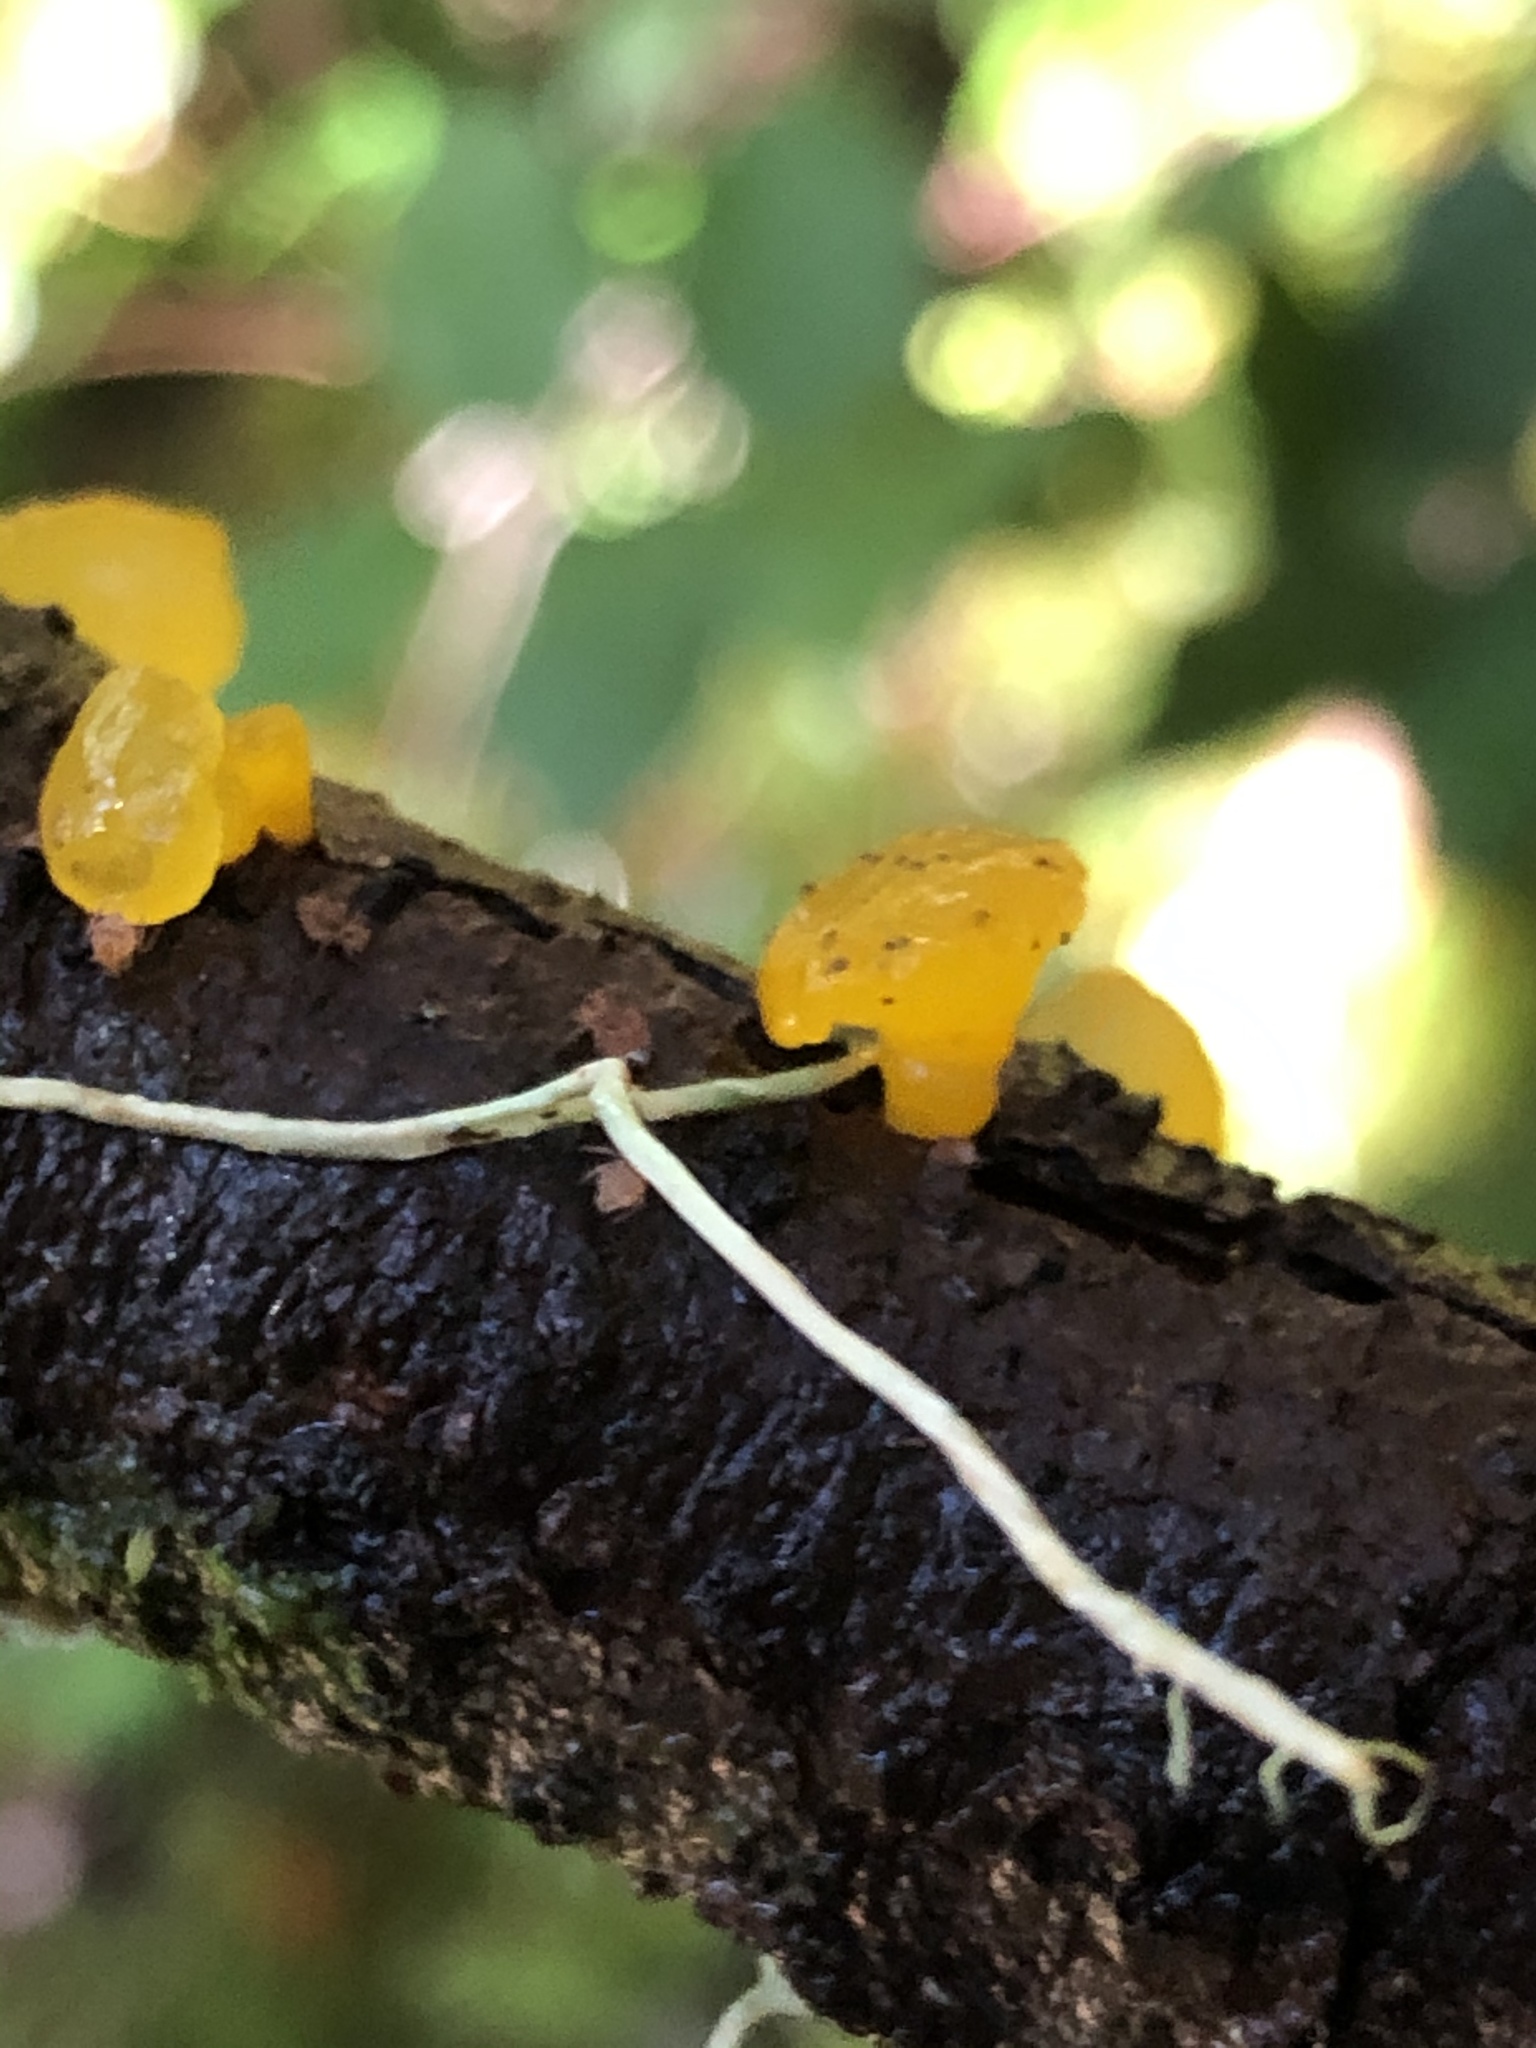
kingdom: Fungi
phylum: Basidiomycota
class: Dacrymycetes
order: Dacrymycetales
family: Dacrymycetaceae
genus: Guepiniopsis
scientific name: Guepiniopsis alpina
